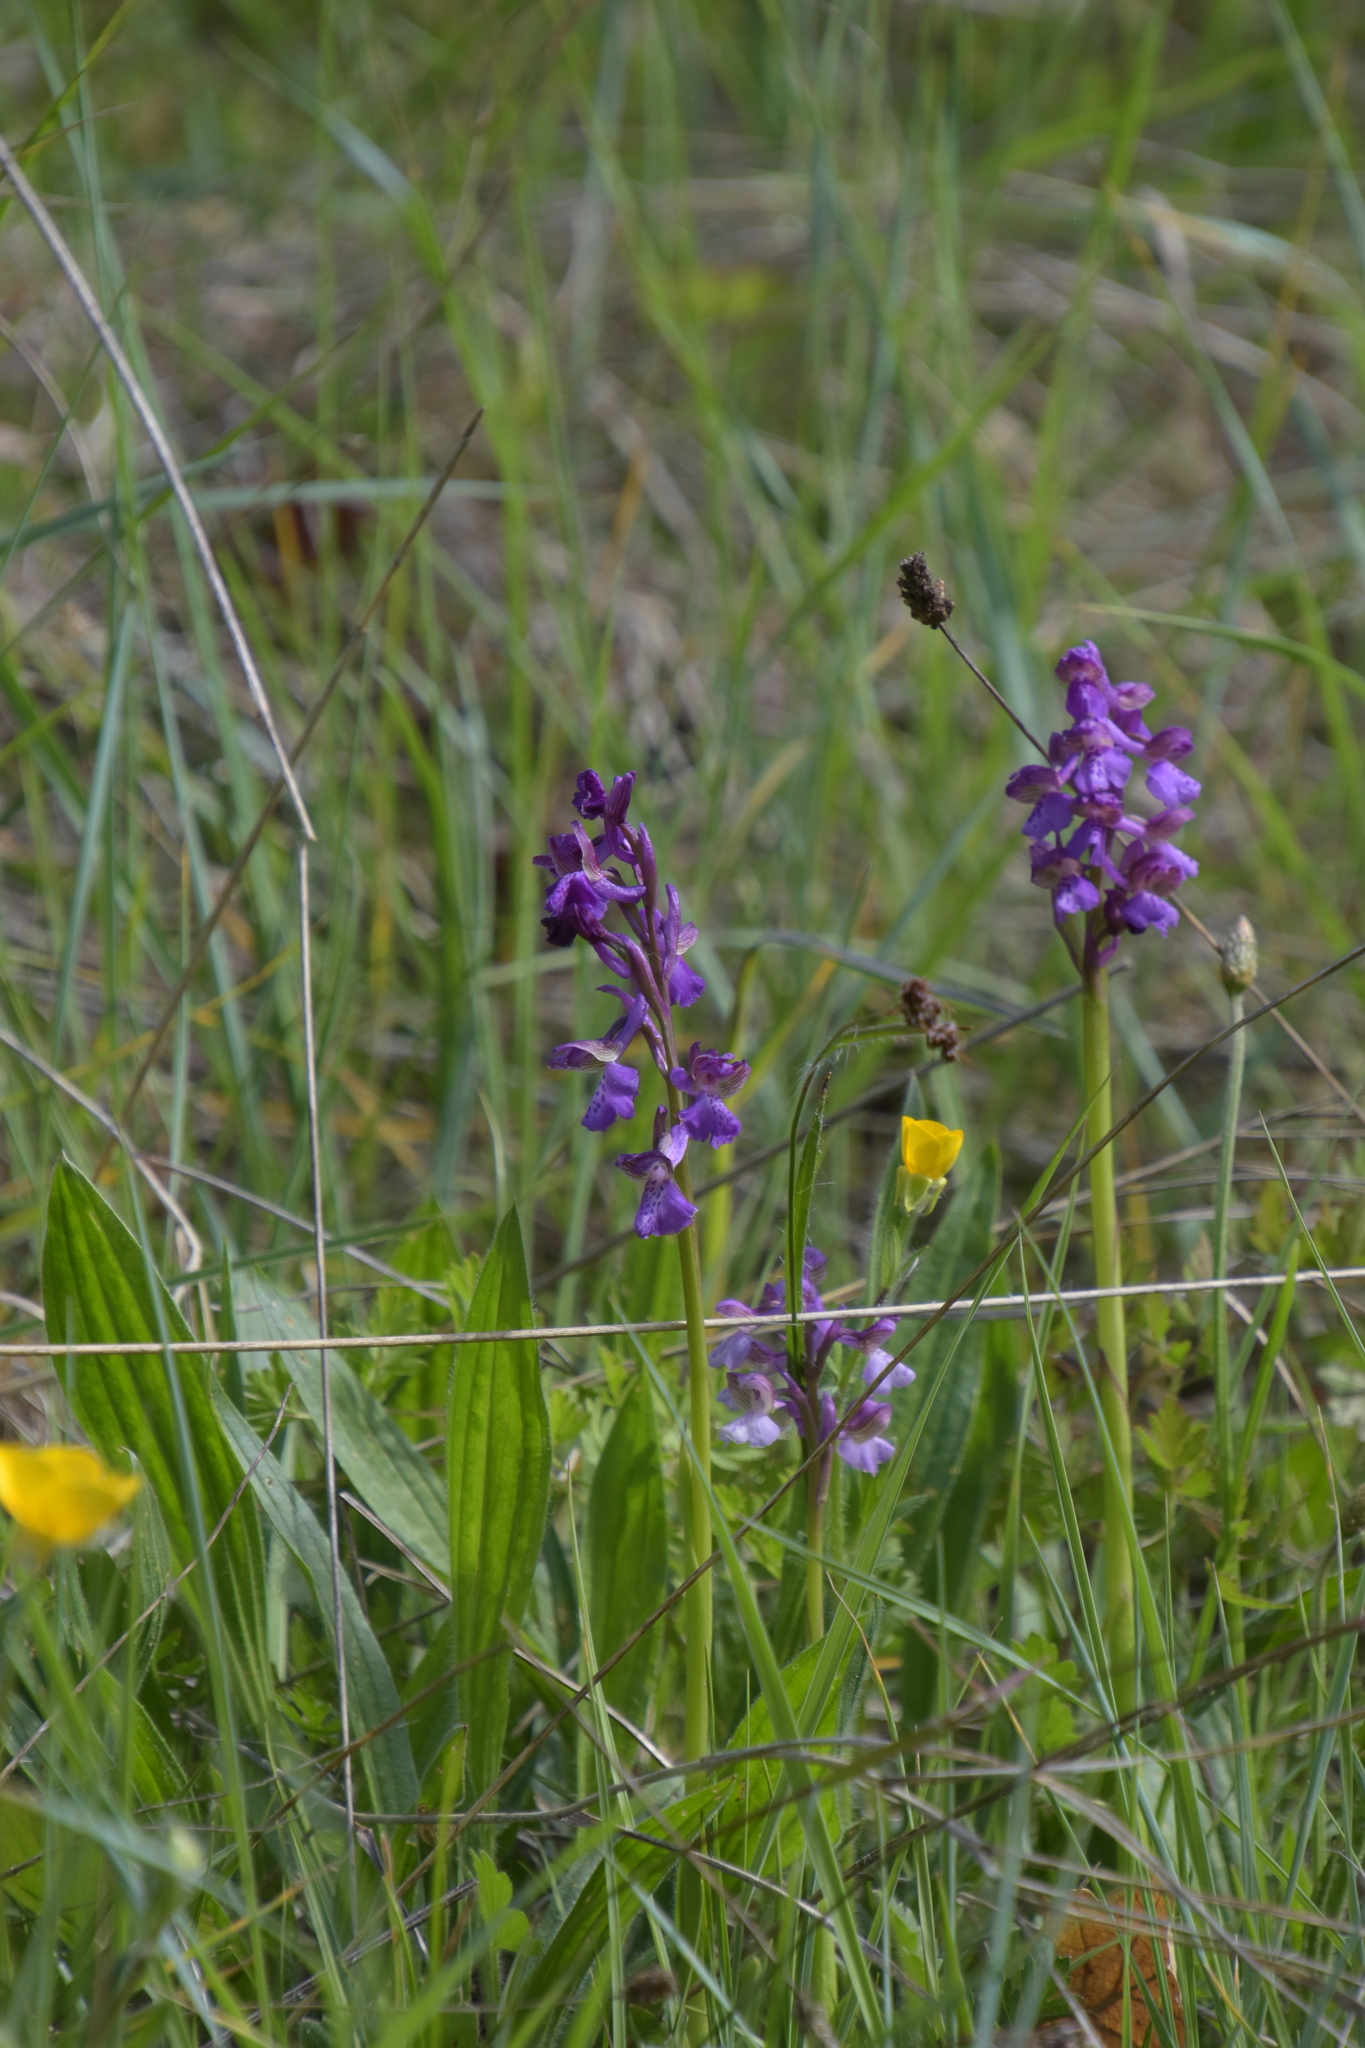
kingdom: Plantae
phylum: Tracheophyta
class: Liliopsida
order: Asparagales
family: Orchidaceae
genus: Anacamptis
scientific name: Anacamptis morio
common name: Green-winged orchid
